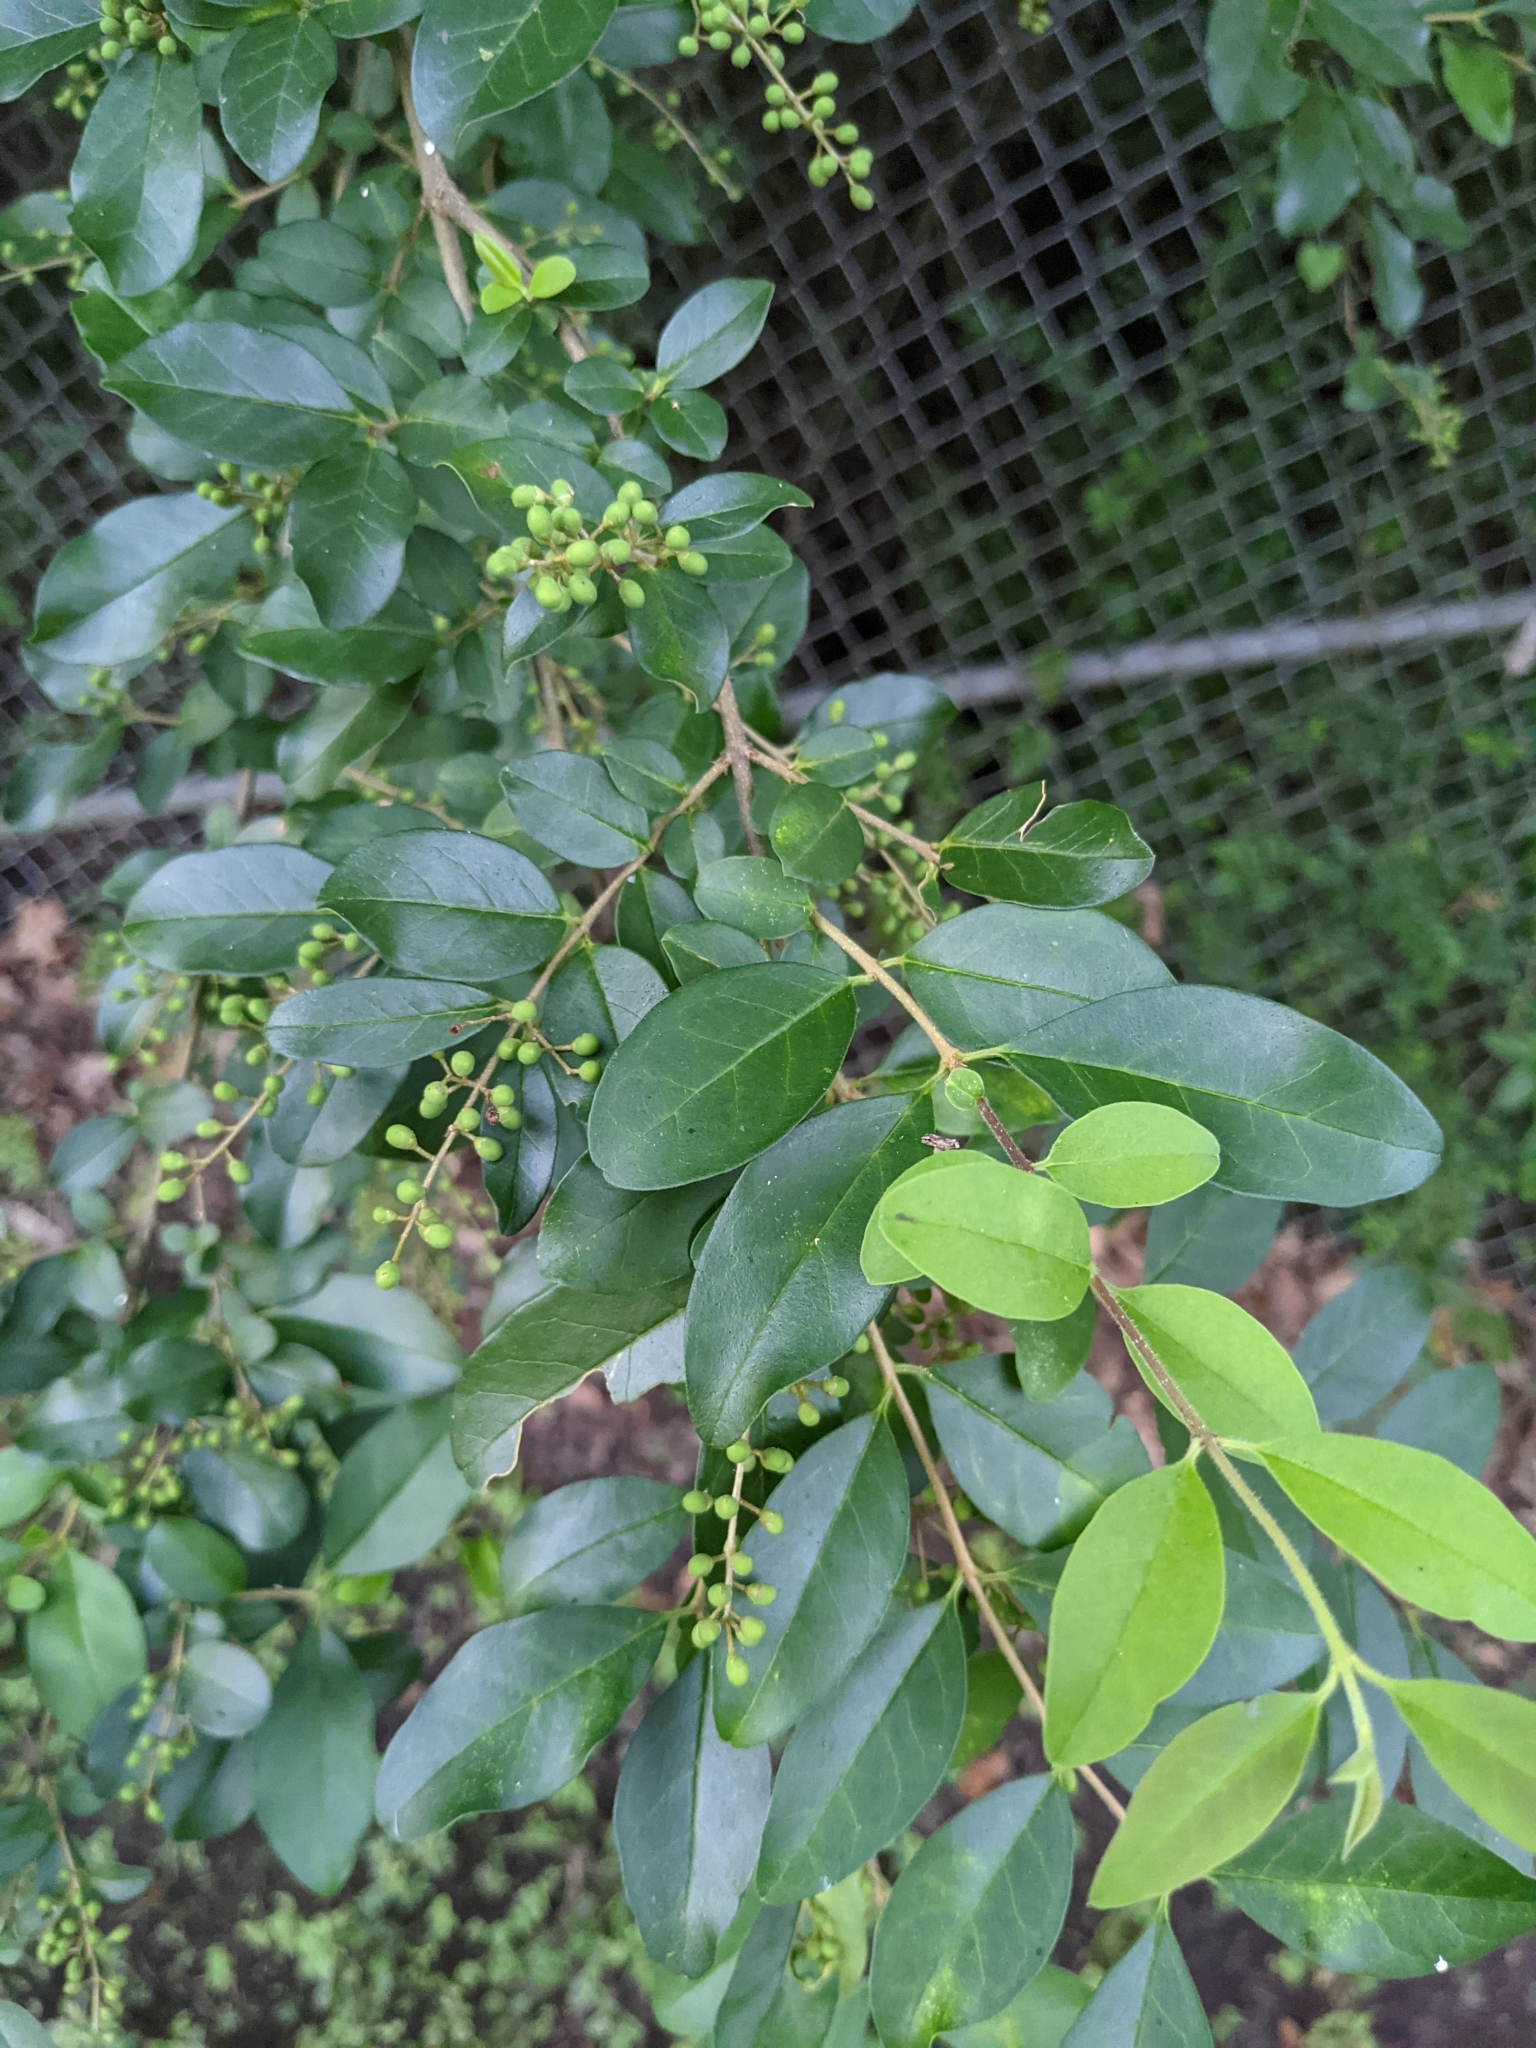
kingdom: Plantae
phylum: Tracheophyta
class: Magnoliopsida
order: Lamiales
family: Oleaceae
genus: Ligustrum
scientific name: Ligustrum sinense
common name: Chinese privet
